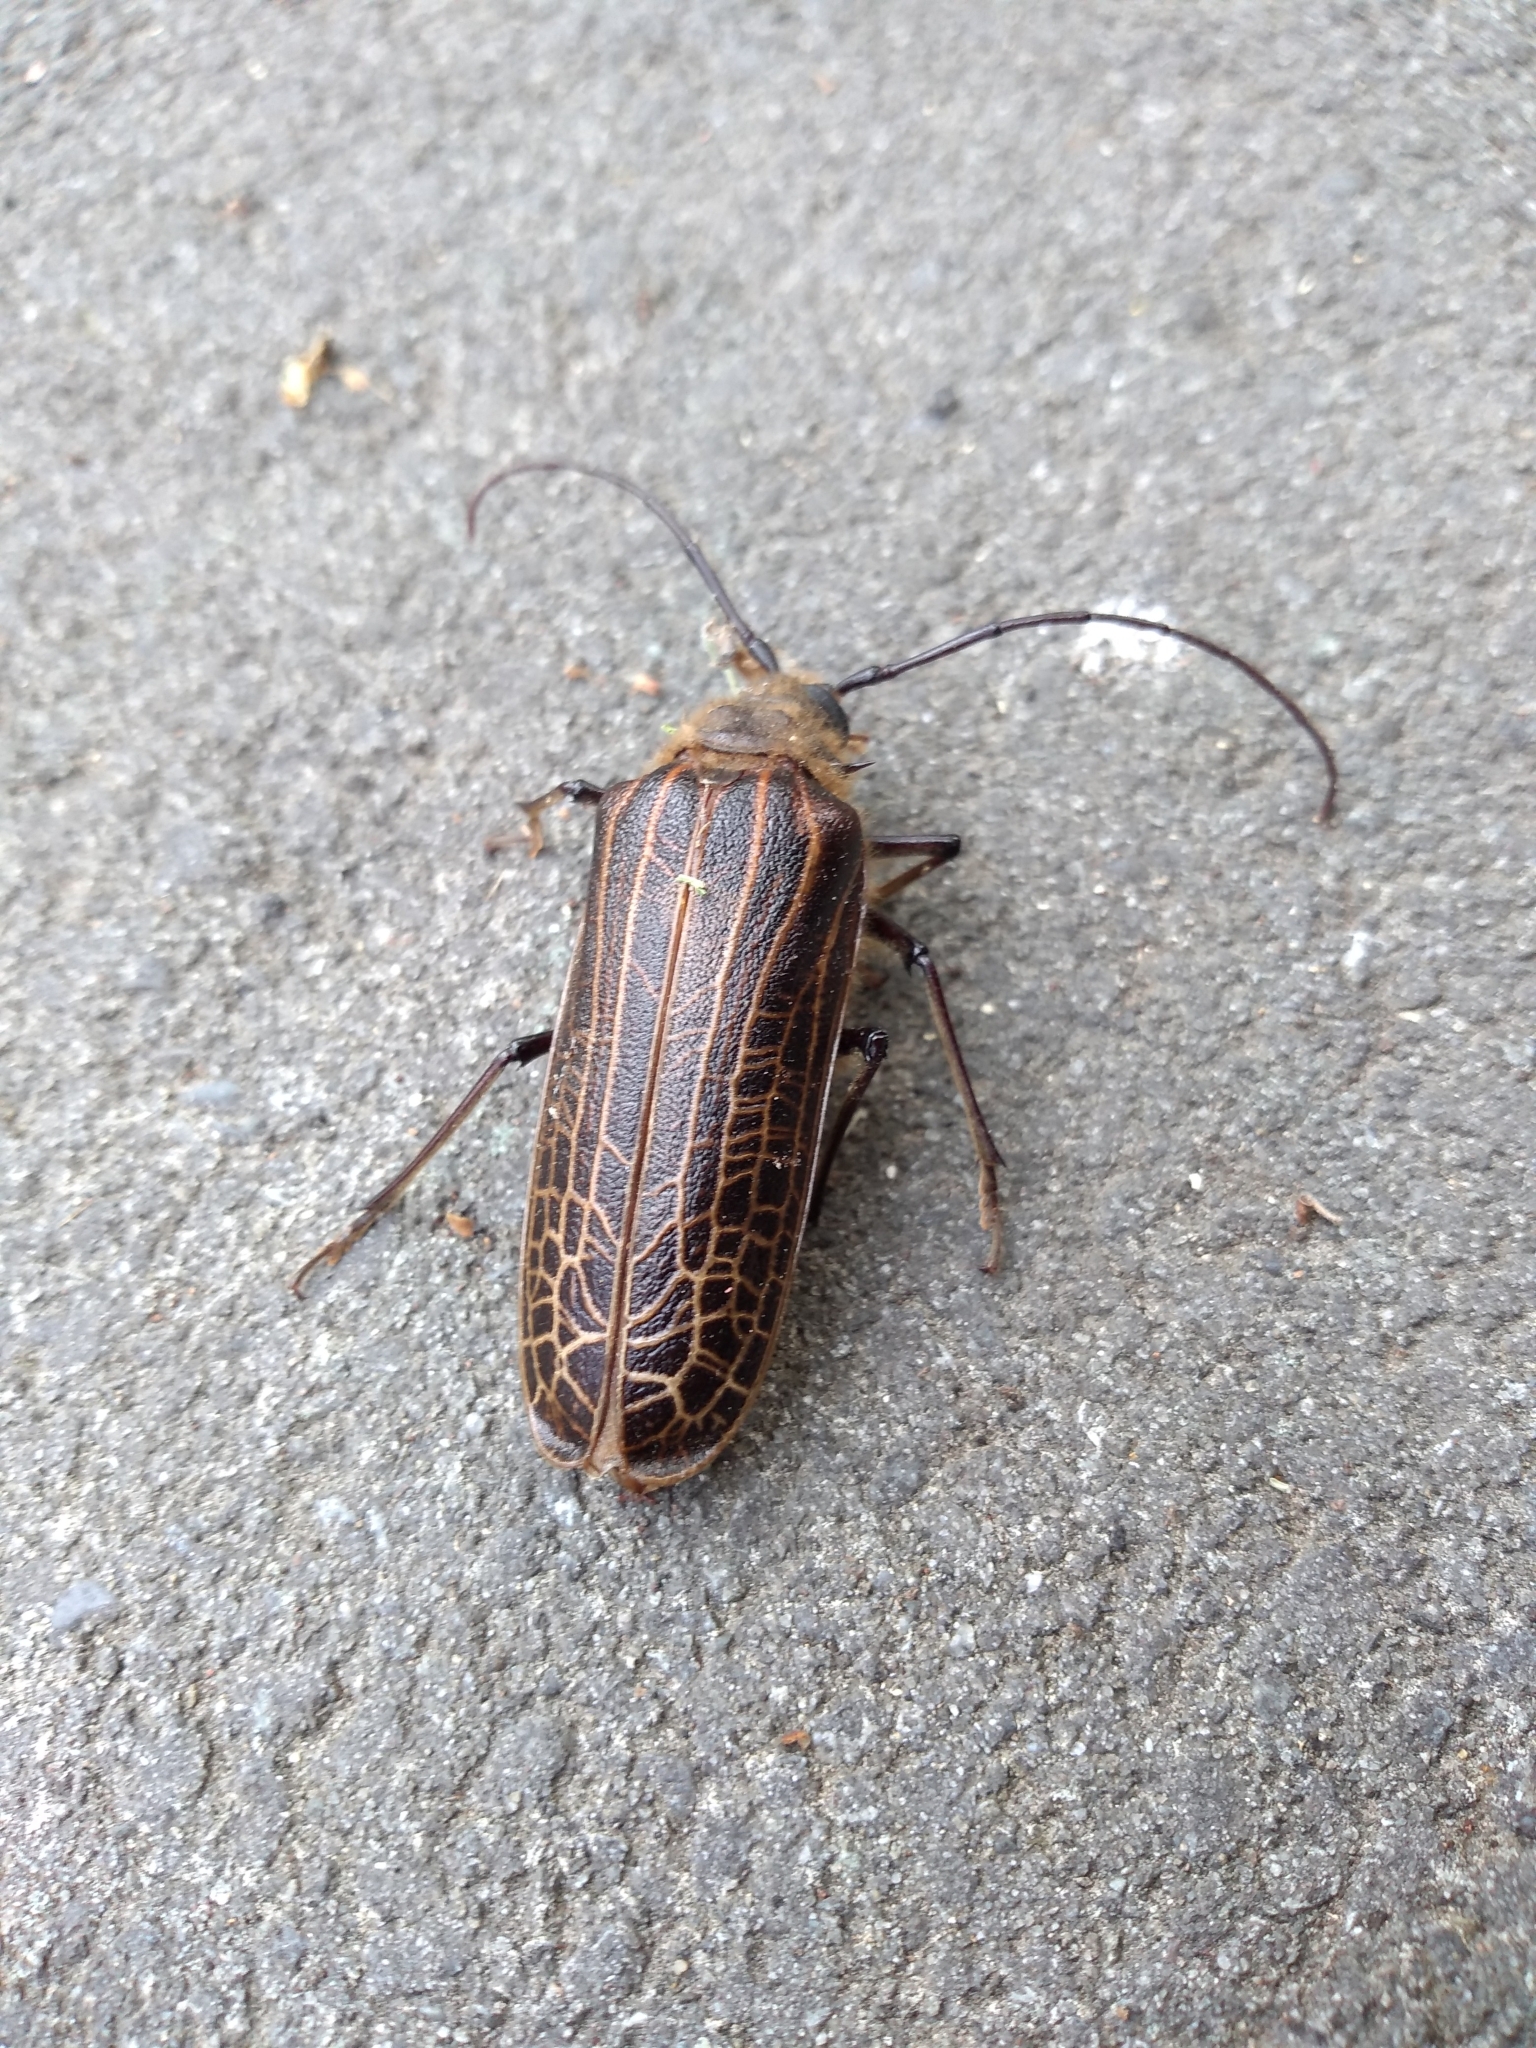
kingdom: Animalia
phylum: Arthropoda
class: Insecta
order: Coleoptera
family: Cerambycidae
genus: Prionoplus
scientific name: Prionoplus reticularis
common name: Huhu beetle
